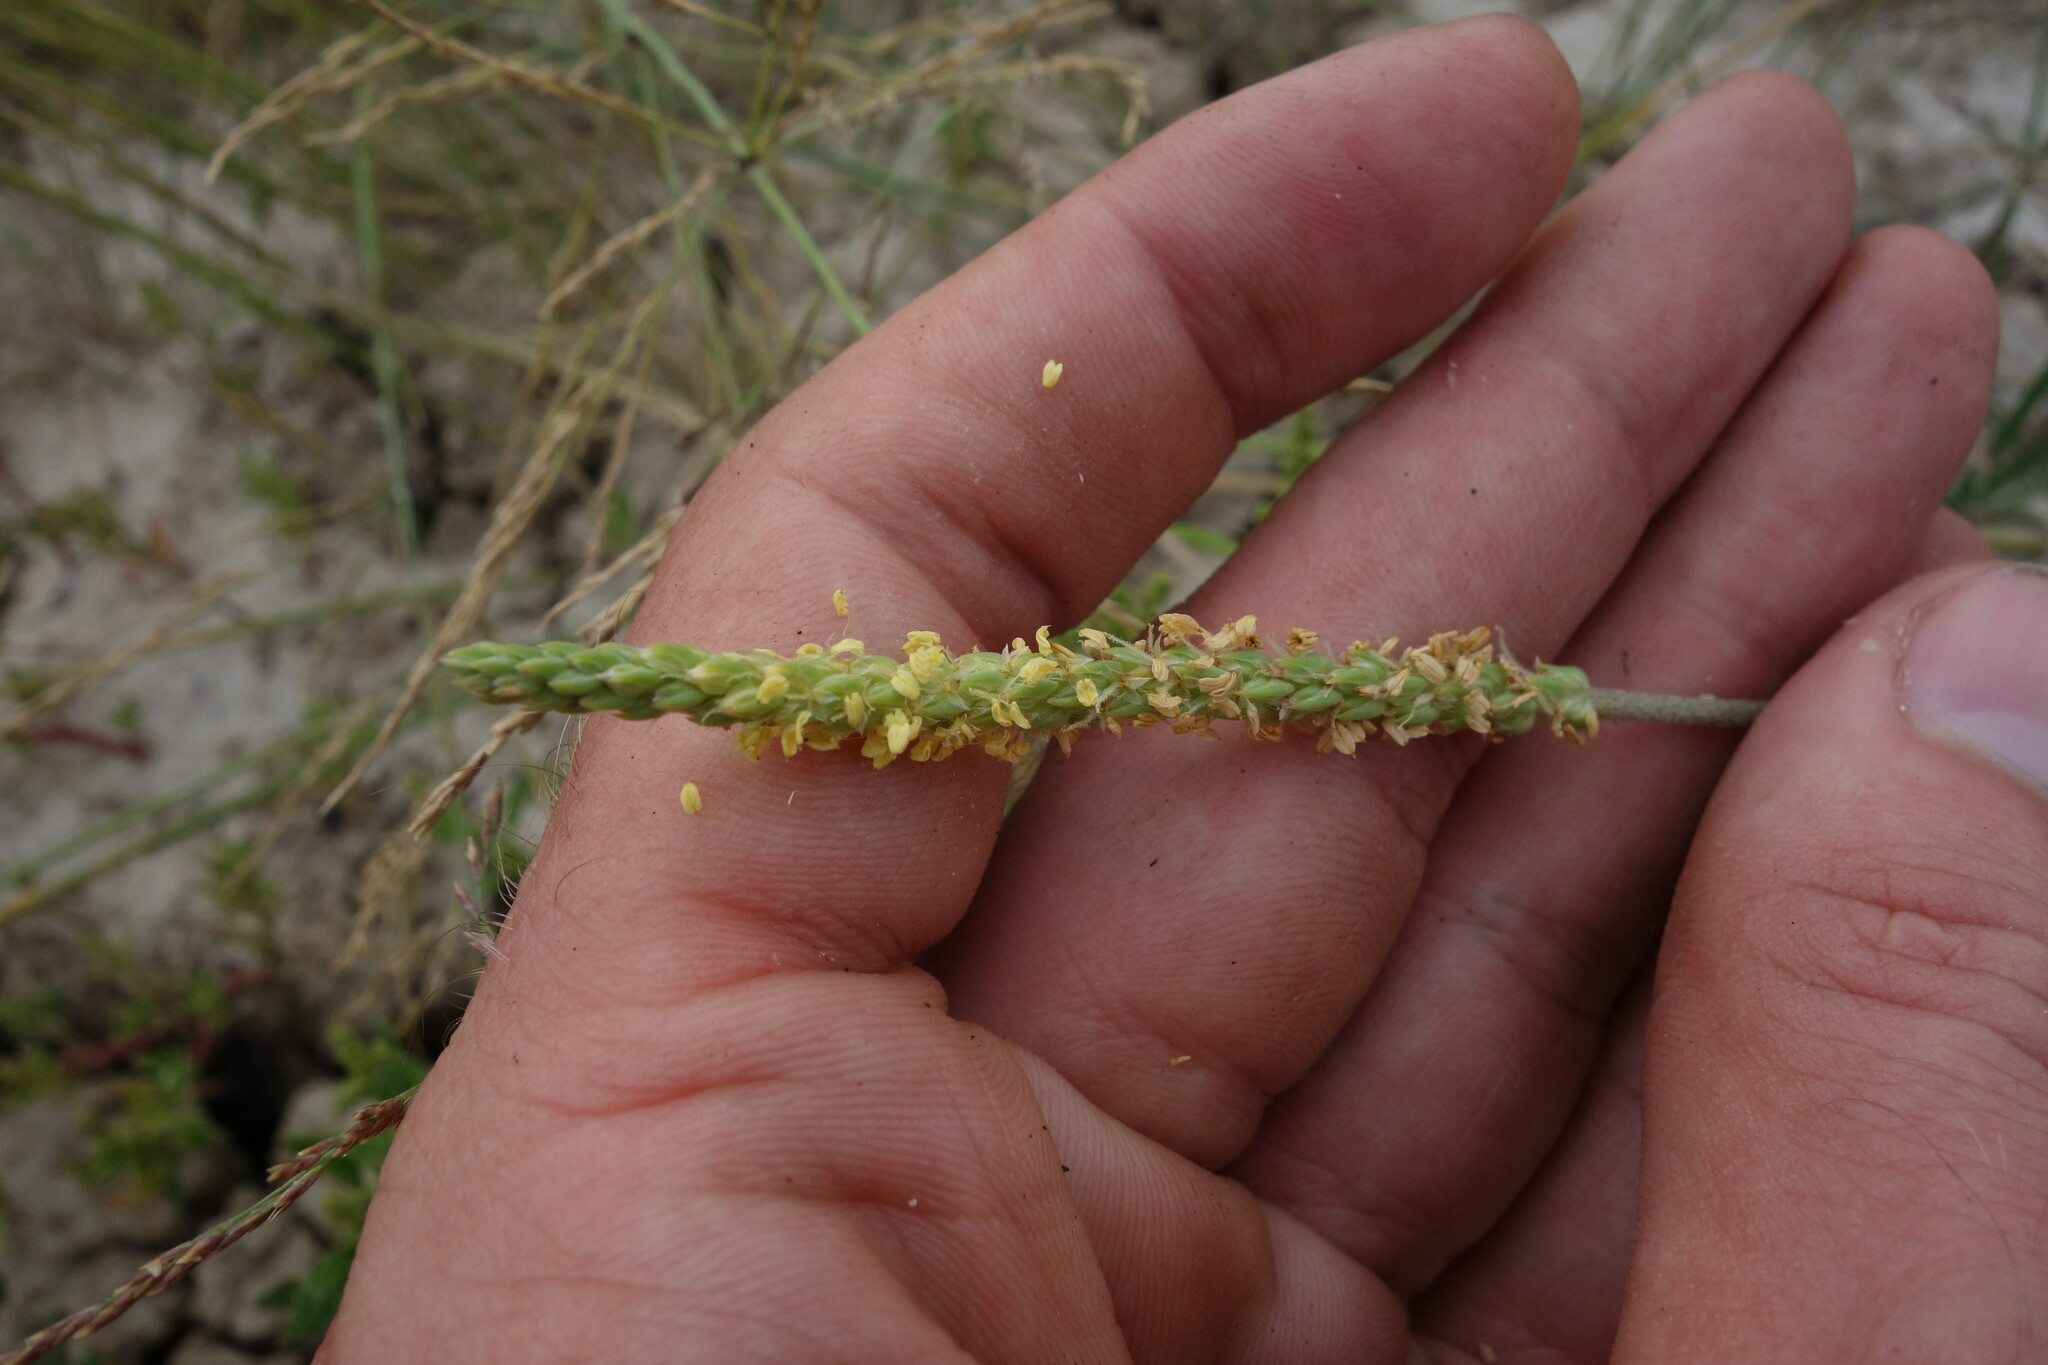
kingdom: Plantae
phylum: Tracheophyta
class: Magnoliopsida
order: Lamiales
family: Plantaginaceae
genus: Plantago
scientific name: Plantago salsa
